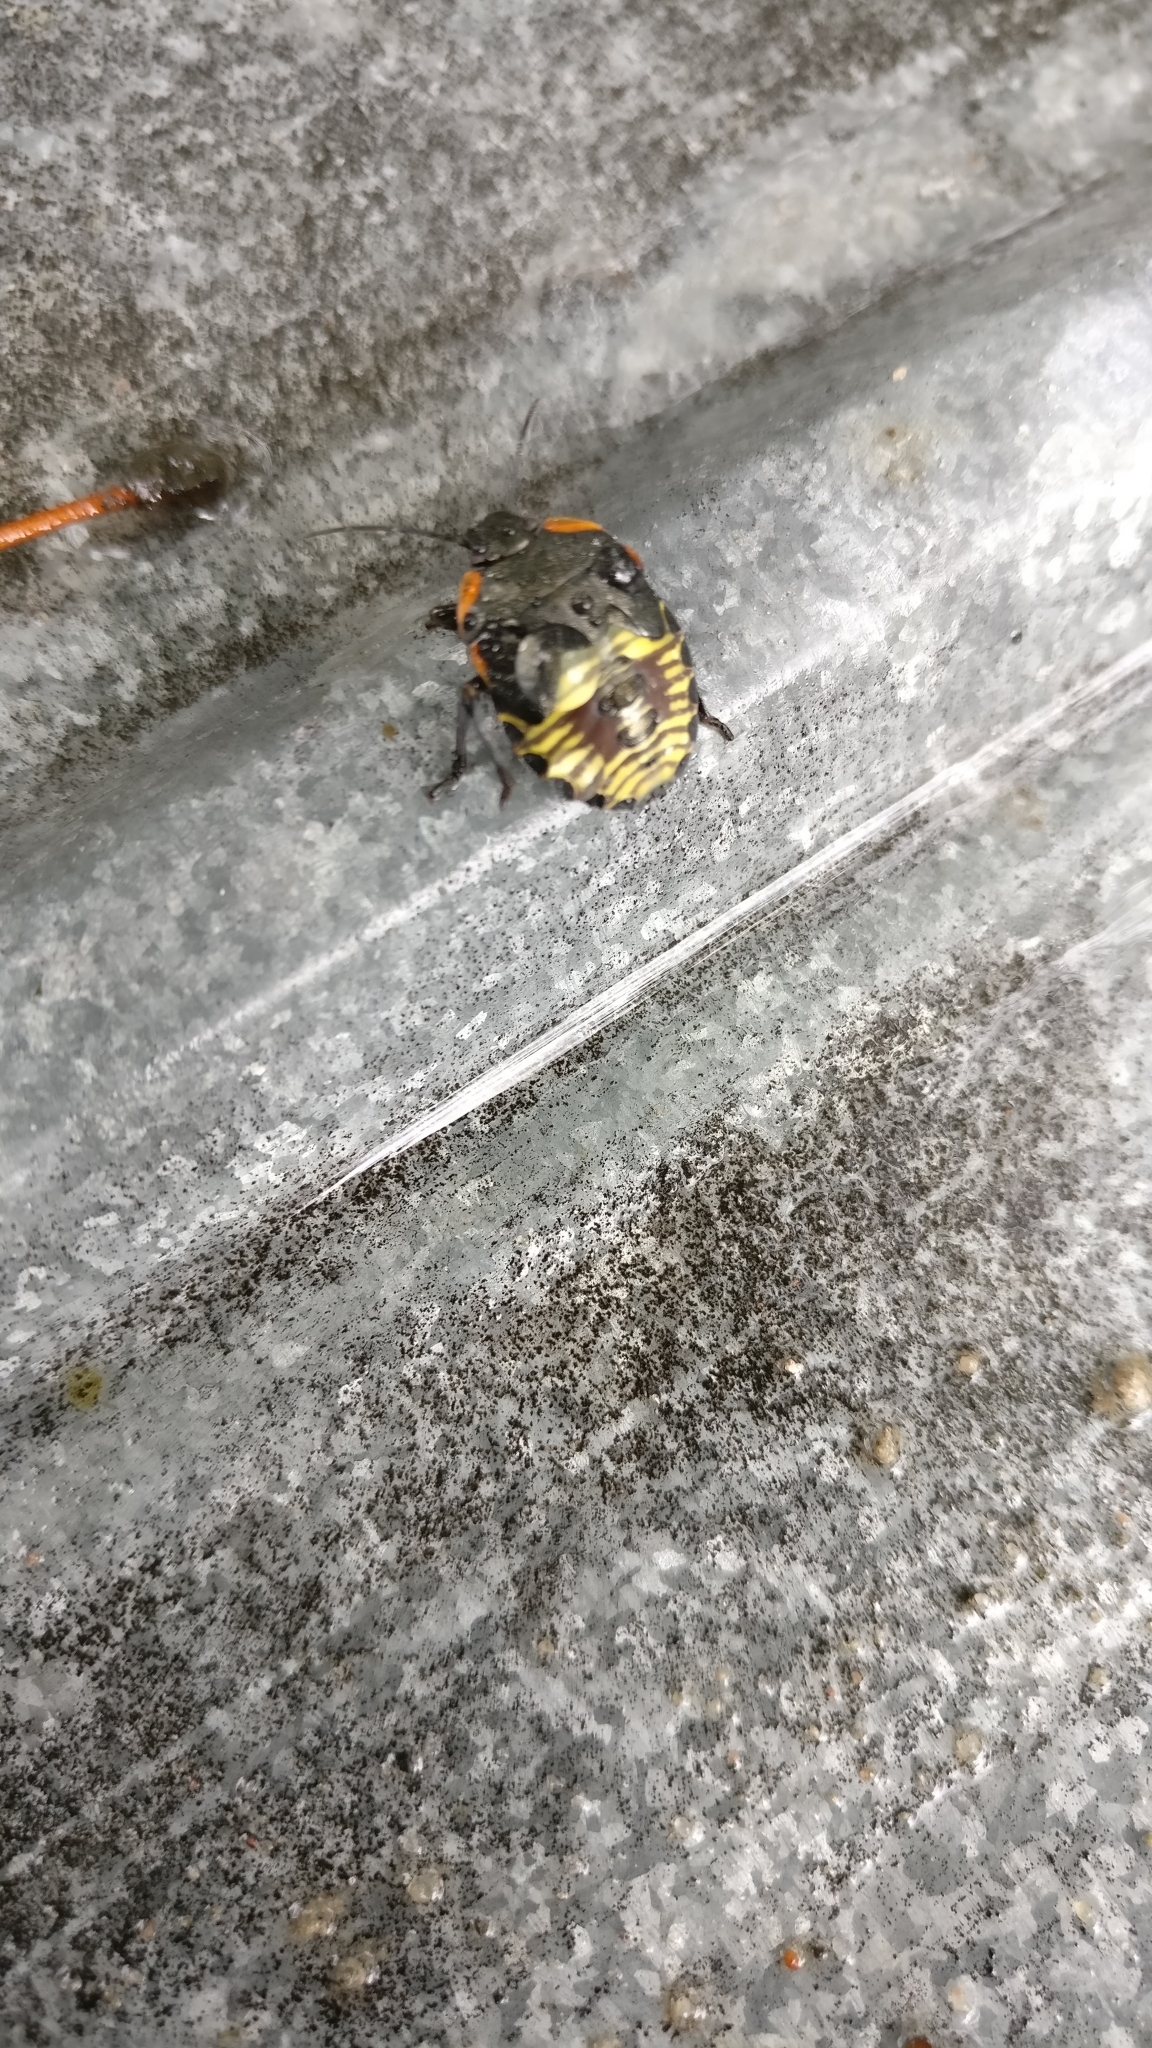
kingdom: Animalia
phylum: Arthropoda
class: Insecta
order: Hemiptera
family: Pentatomidae
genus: Chinavia
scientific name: Chinavia hilaris
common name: Green stink bug
